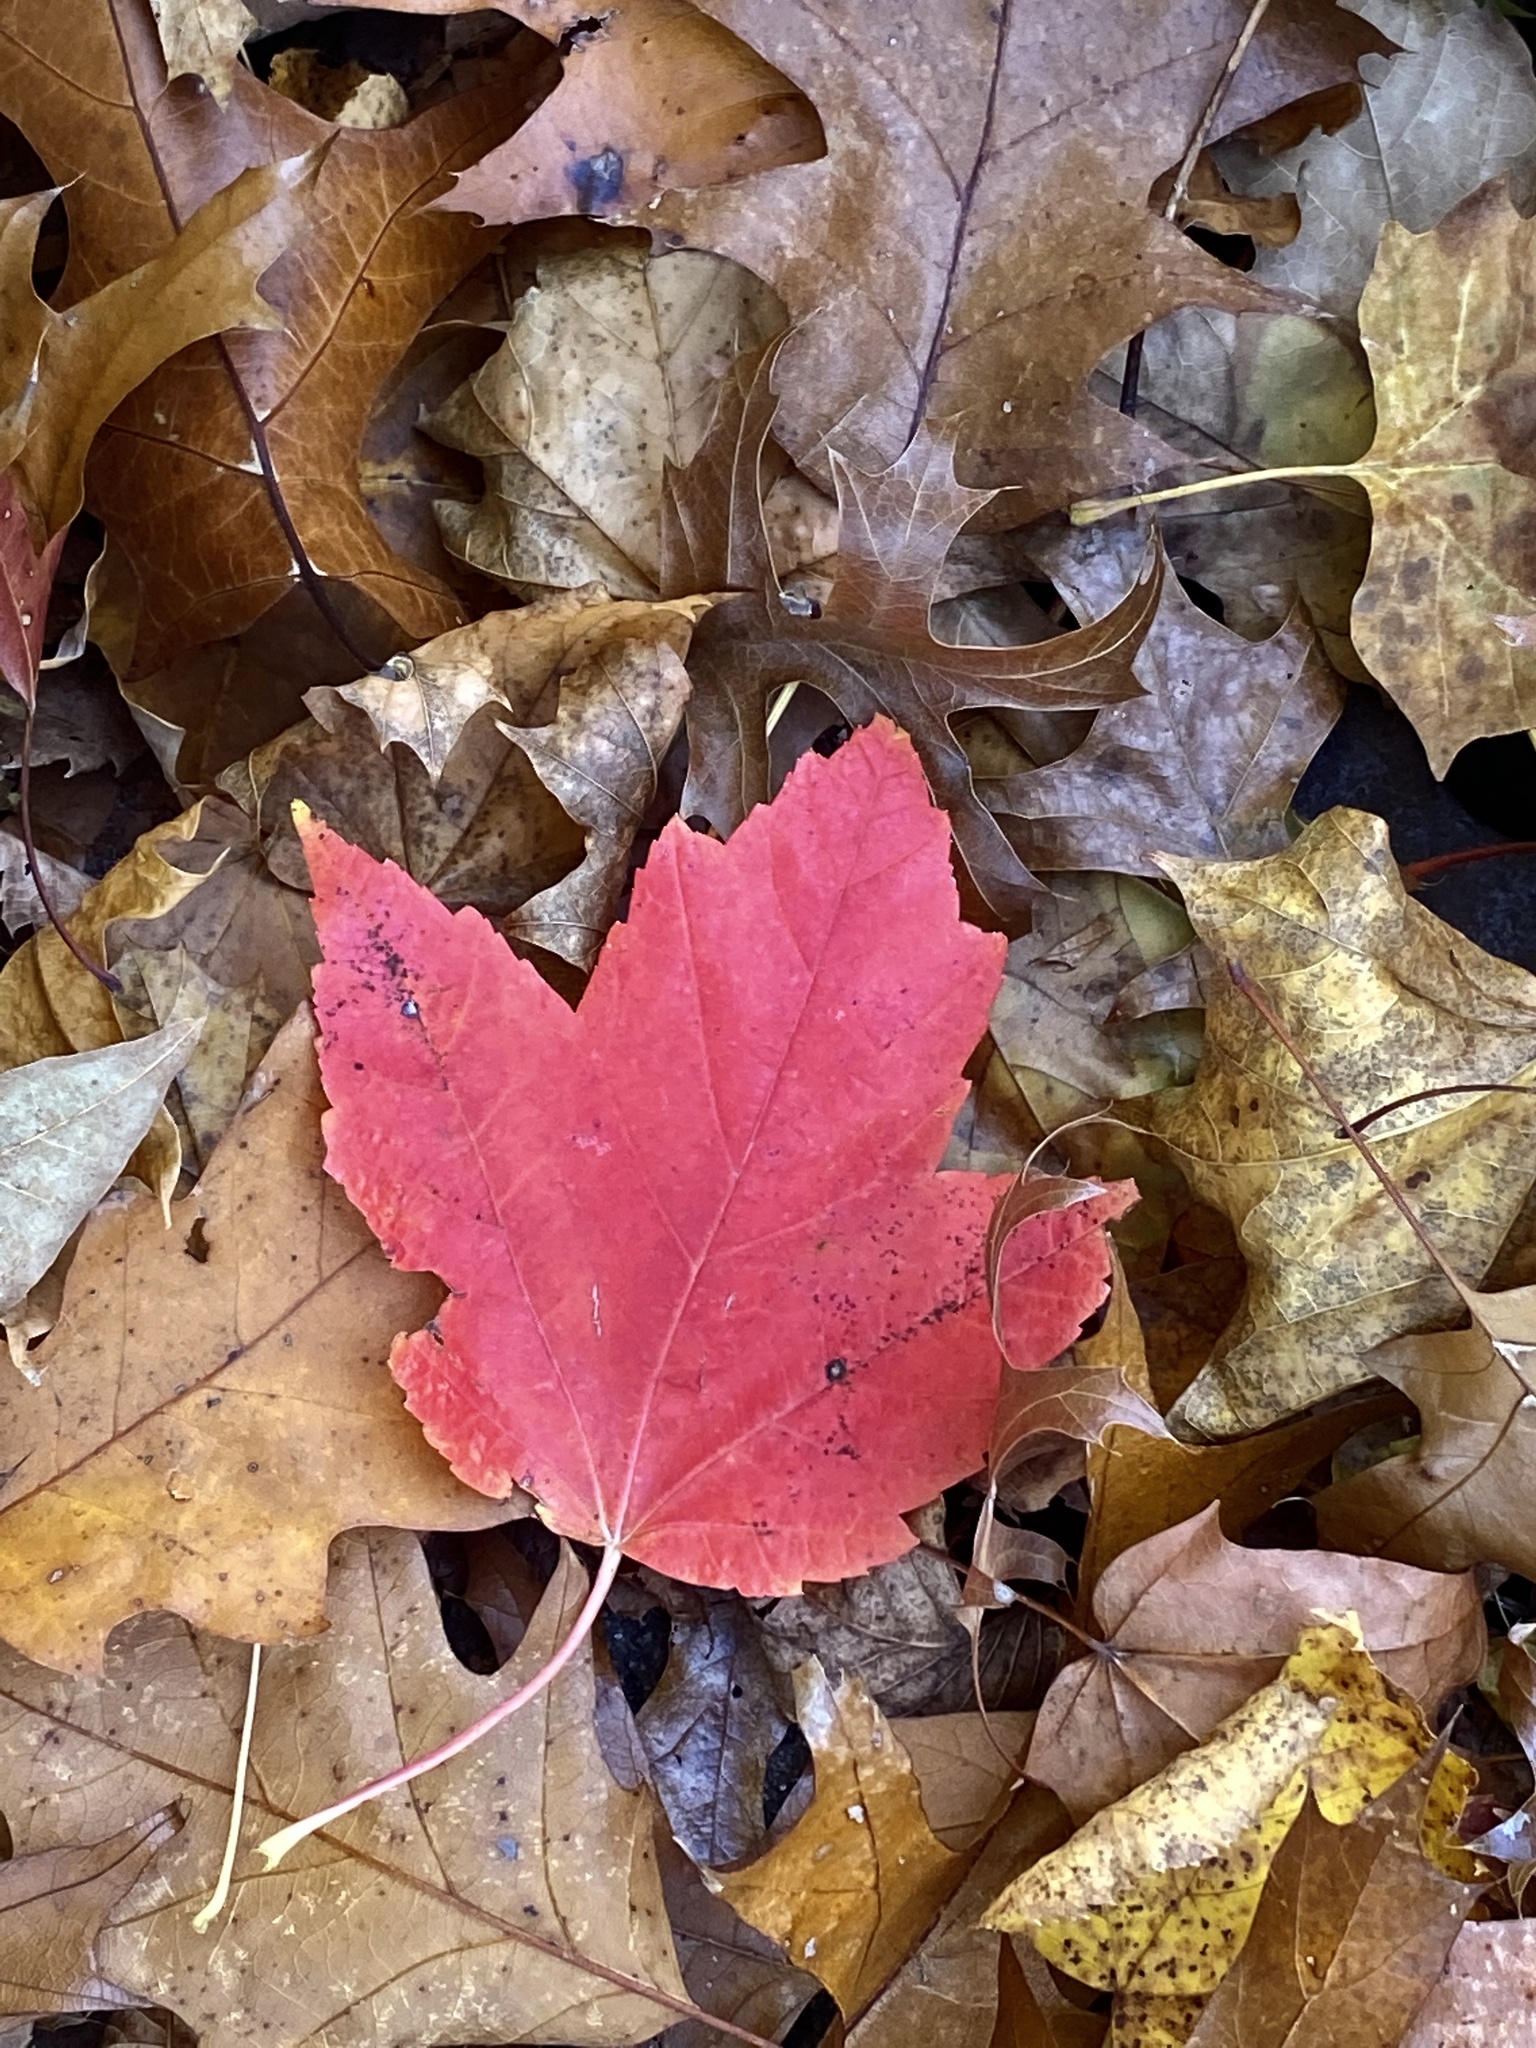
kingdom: Plantae
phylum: Tracheophyta
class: Magnoliopsida
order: Sapindales
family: Sapindaceae
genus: Acer
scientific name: Acer rubrum
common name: Red maple
